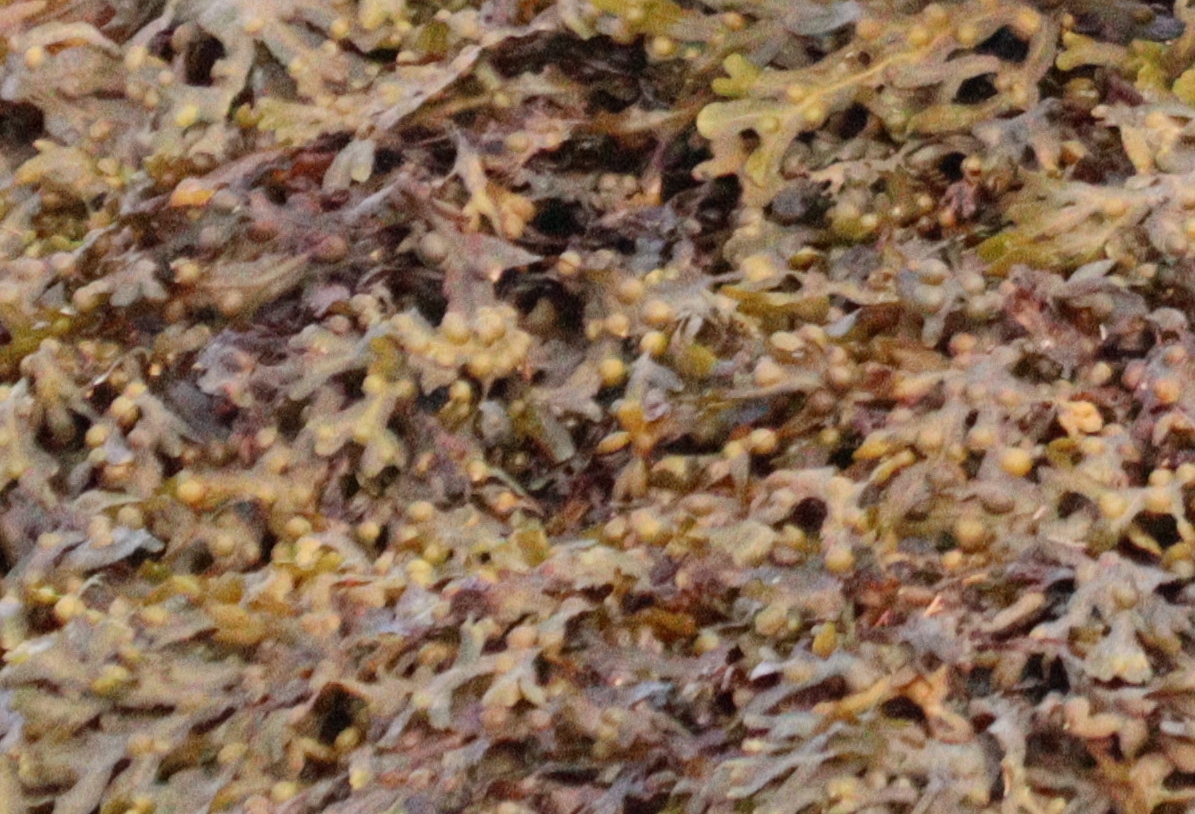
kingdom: Chromista
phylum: Ochrophyta
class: Phaeophyceae
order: Fucales
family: Fucaceae
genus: Fucus
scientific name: Fucus vesiculosus
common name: Bladder wrack
